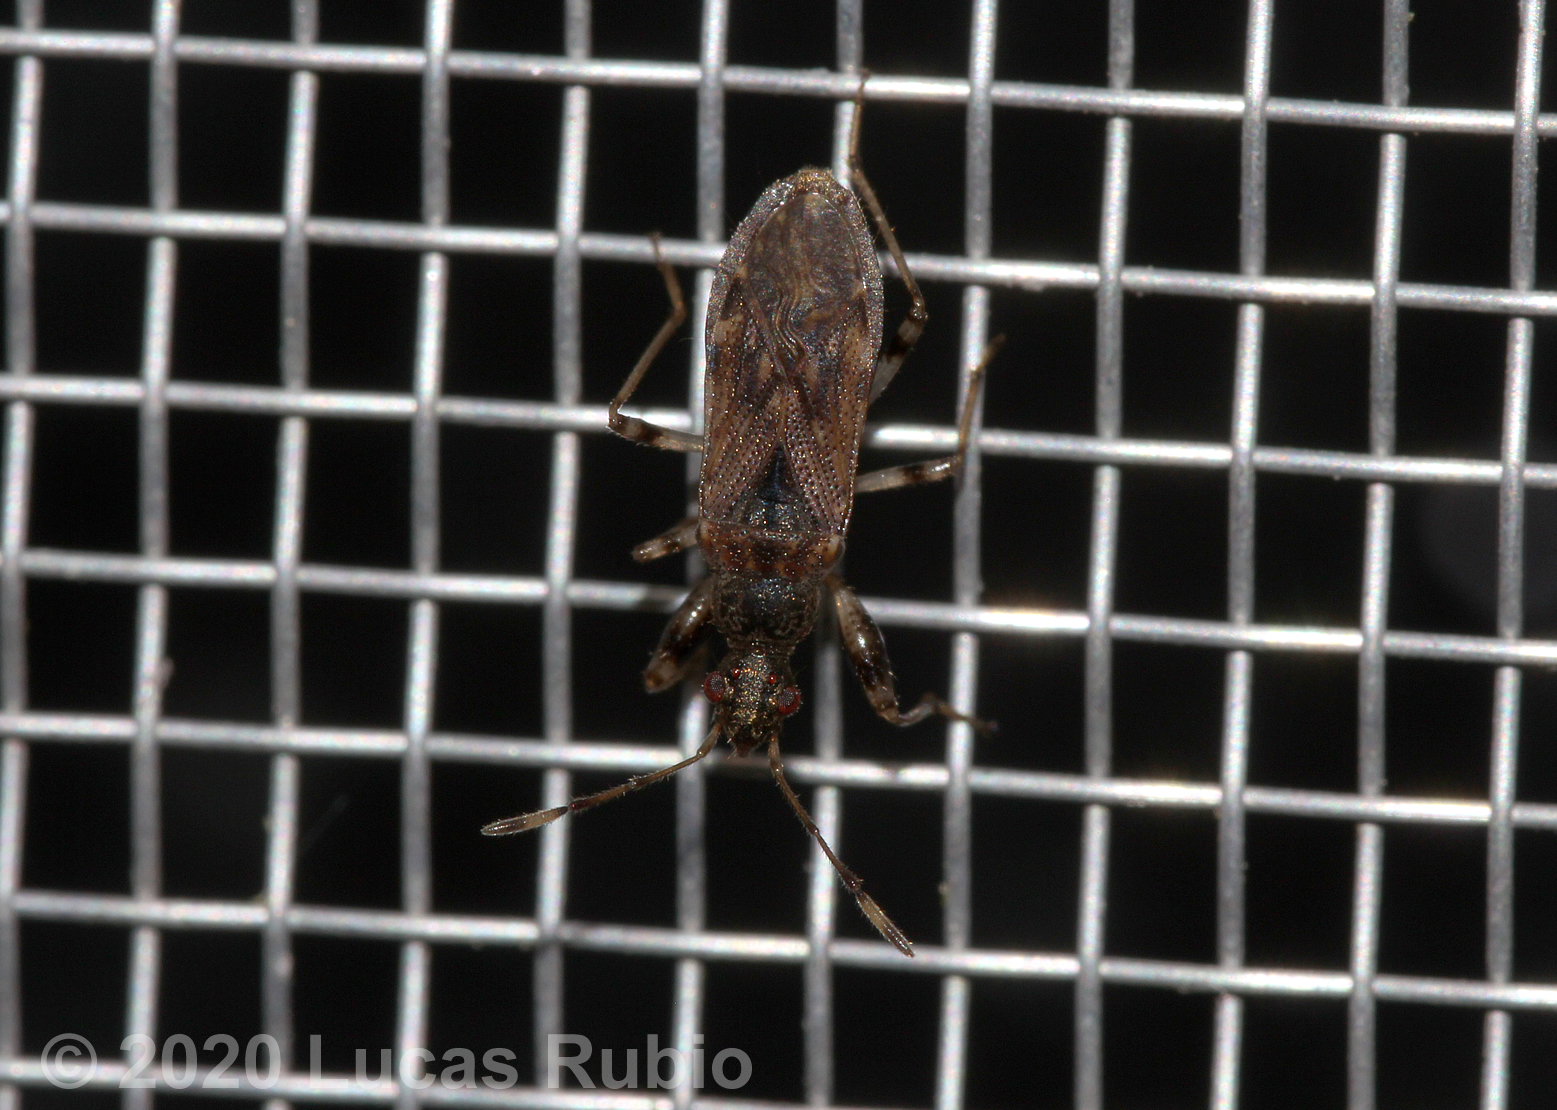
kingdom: Animalia
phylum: Arthropoda
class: Insecta
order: Hemiptera
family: Rhyparochromidae
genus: Paisana
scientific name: Paisana brachialis
